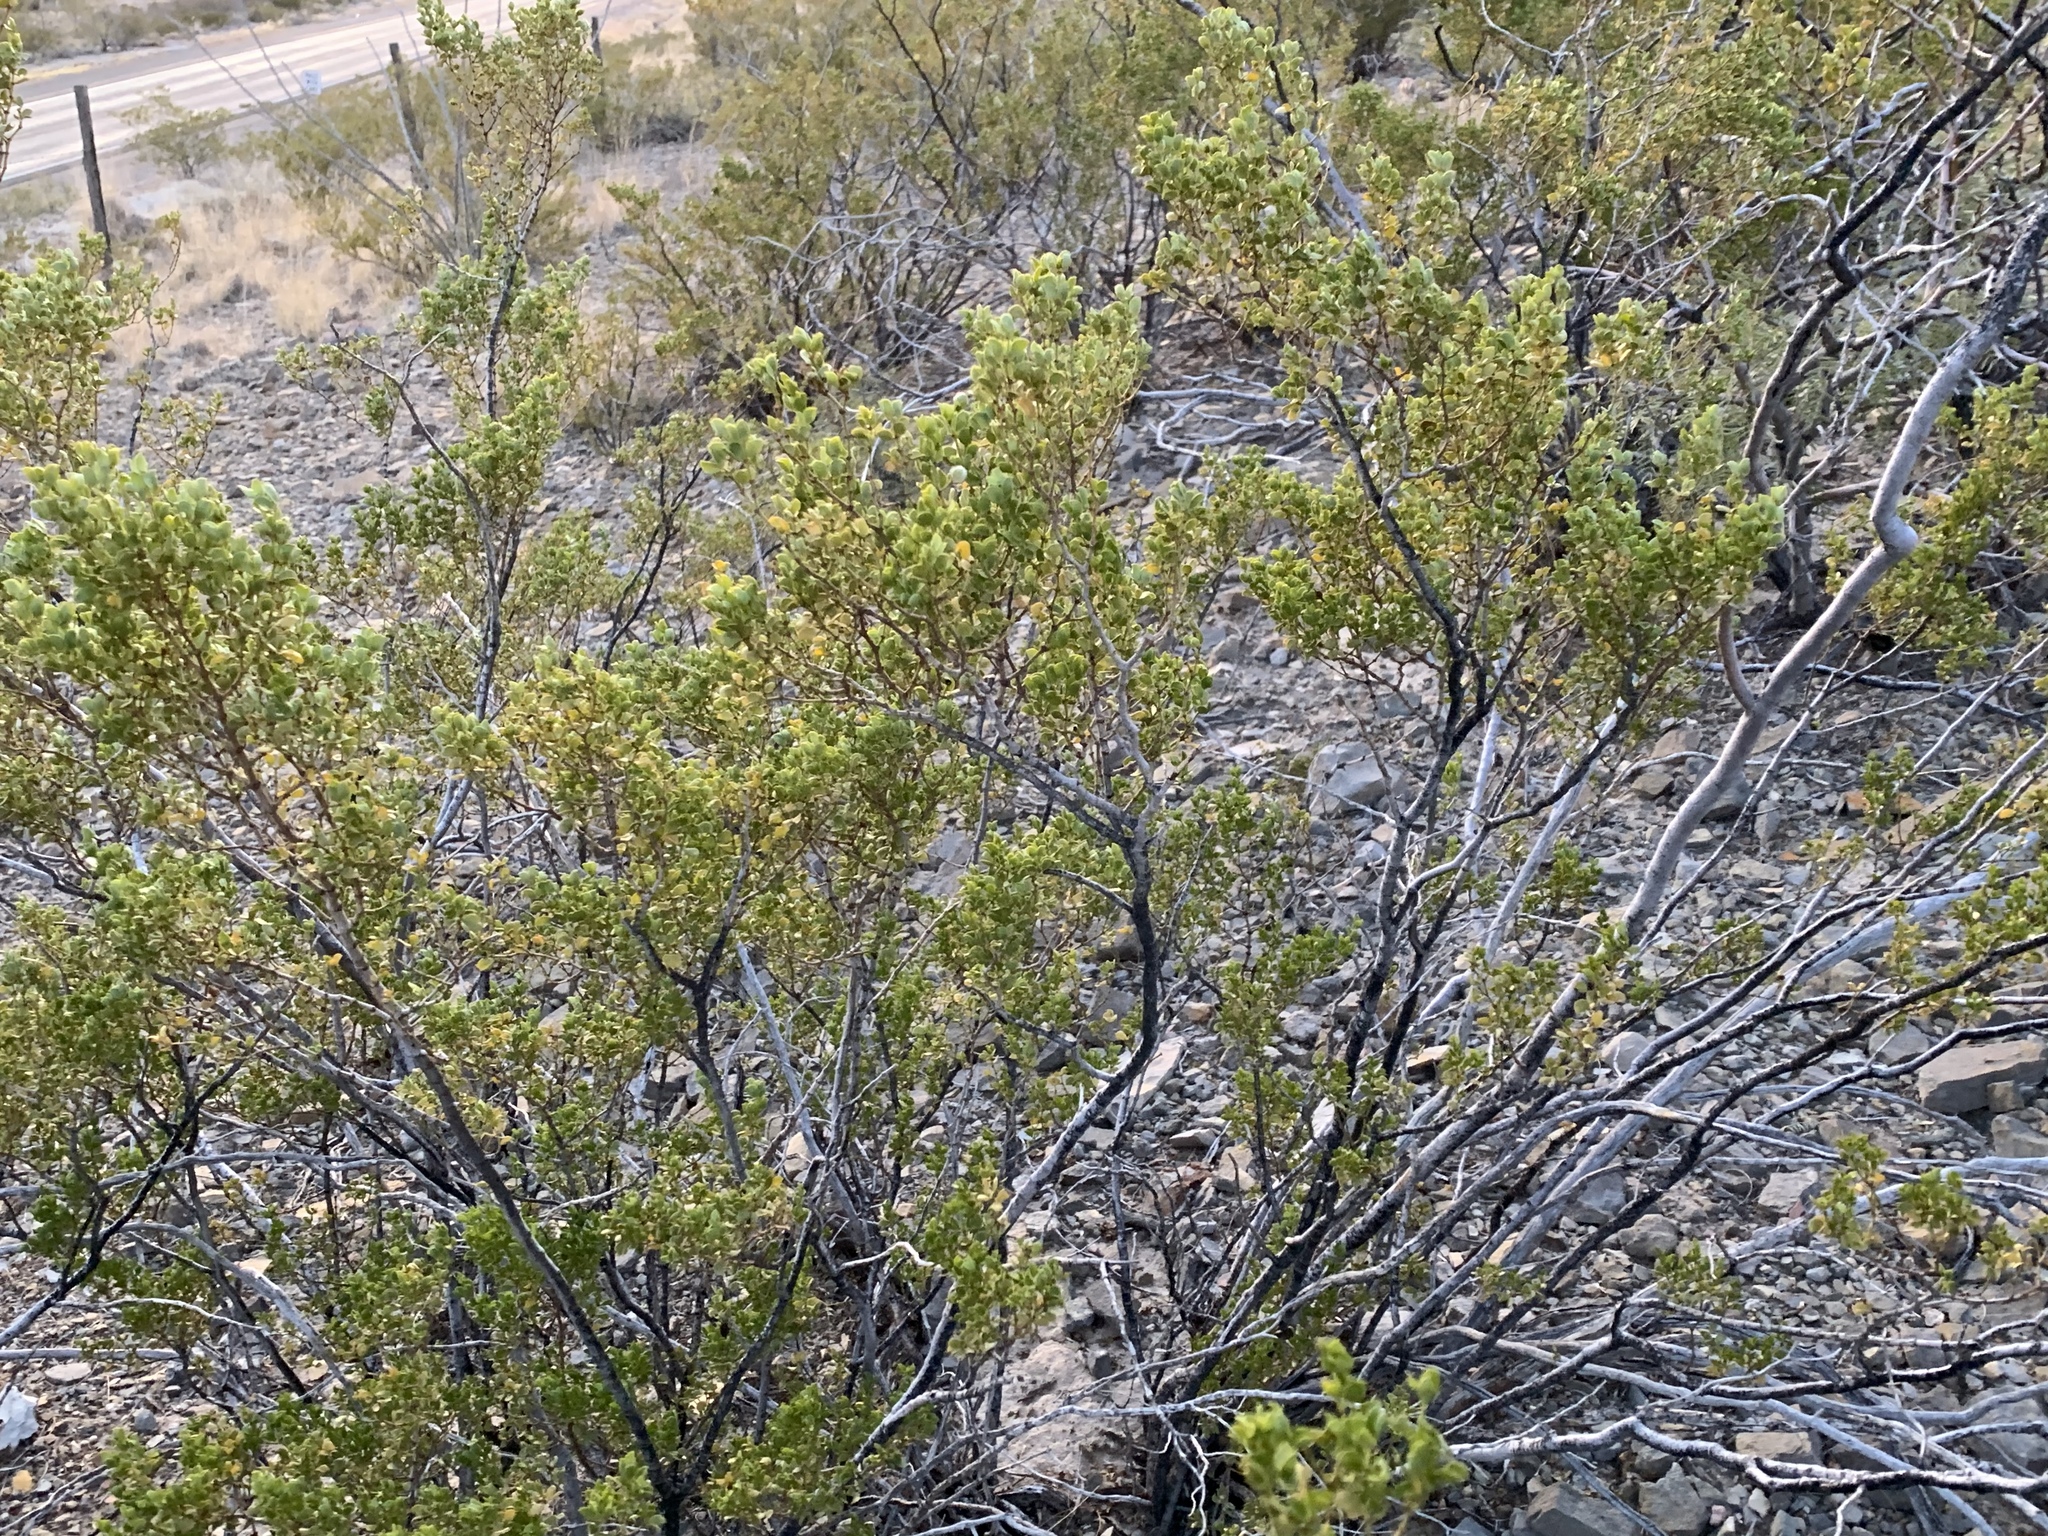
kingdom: Plantae
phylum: Tracheophyta
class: Magnoliopsida
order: Zygophyllales
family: Zygophyllaceae
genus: Larrea
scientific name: Larrea tridentata
